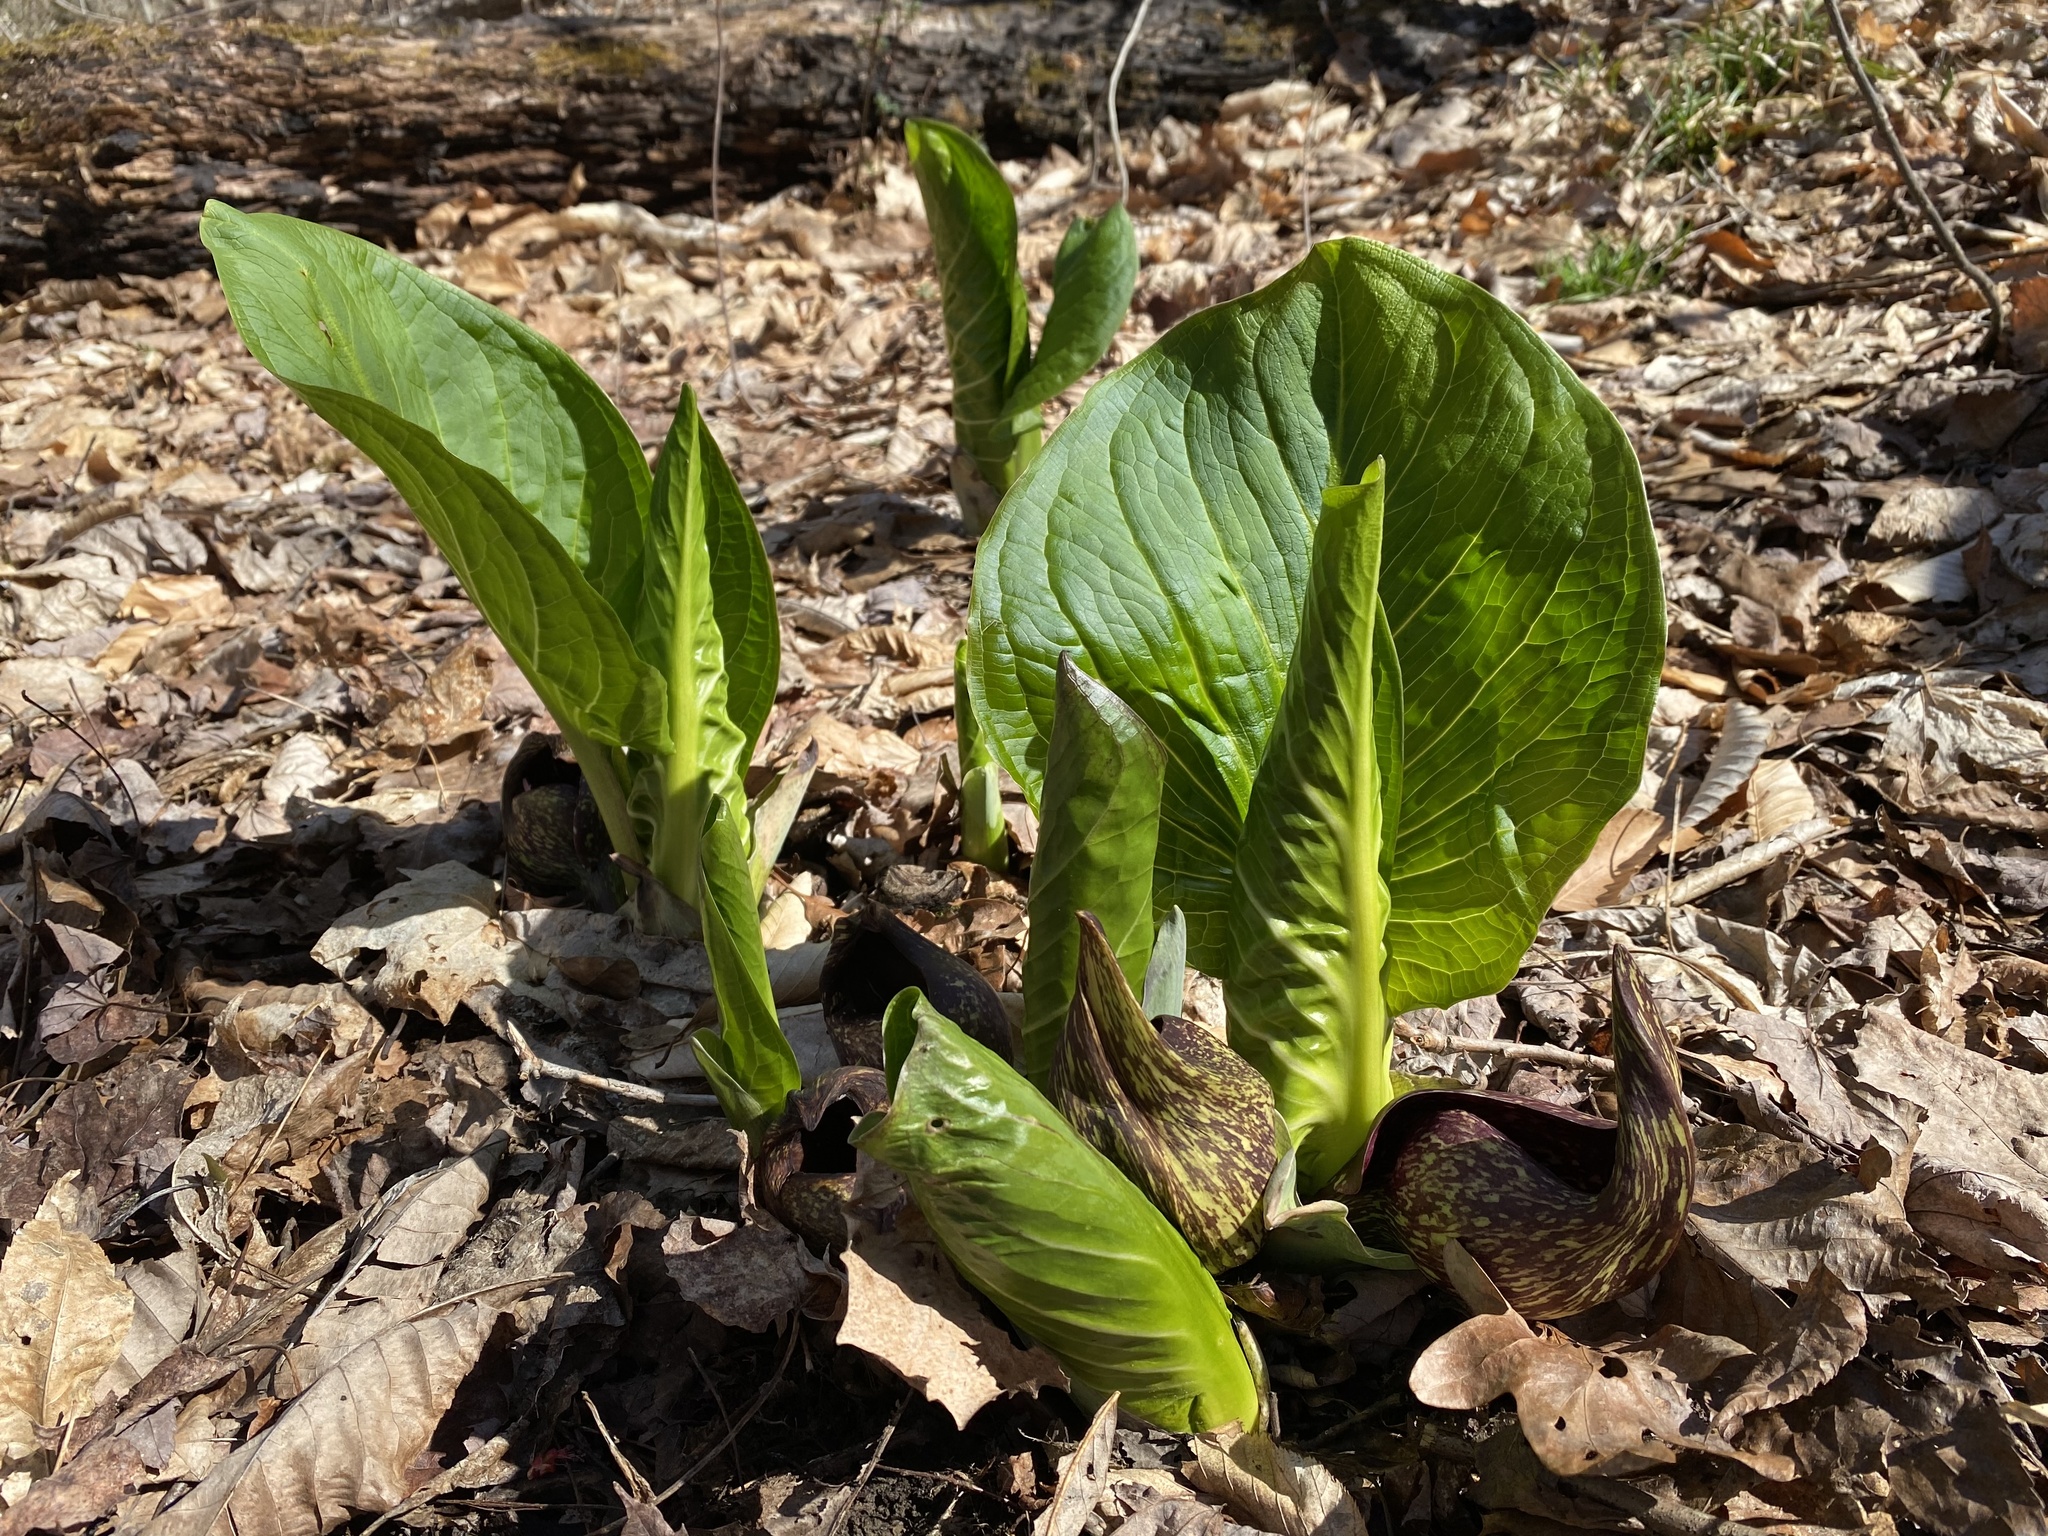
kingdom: Plantae
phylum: Tracheophyta
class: Liliopsida
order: Alismatales
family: Araceae
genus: Symplocarpus
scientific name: Symplocarpus foetidus
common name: Eastern skunk cabbage
